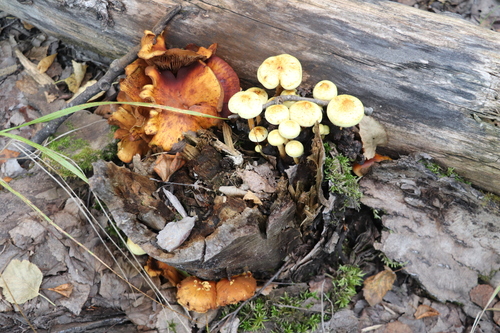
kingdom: Fungi
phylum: Basidiomycota
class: Agaricomycetes
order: Agaricales
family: Hymenogastraceae
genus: Flammula
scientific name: Flammula alnicola
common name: Alder scalycap
